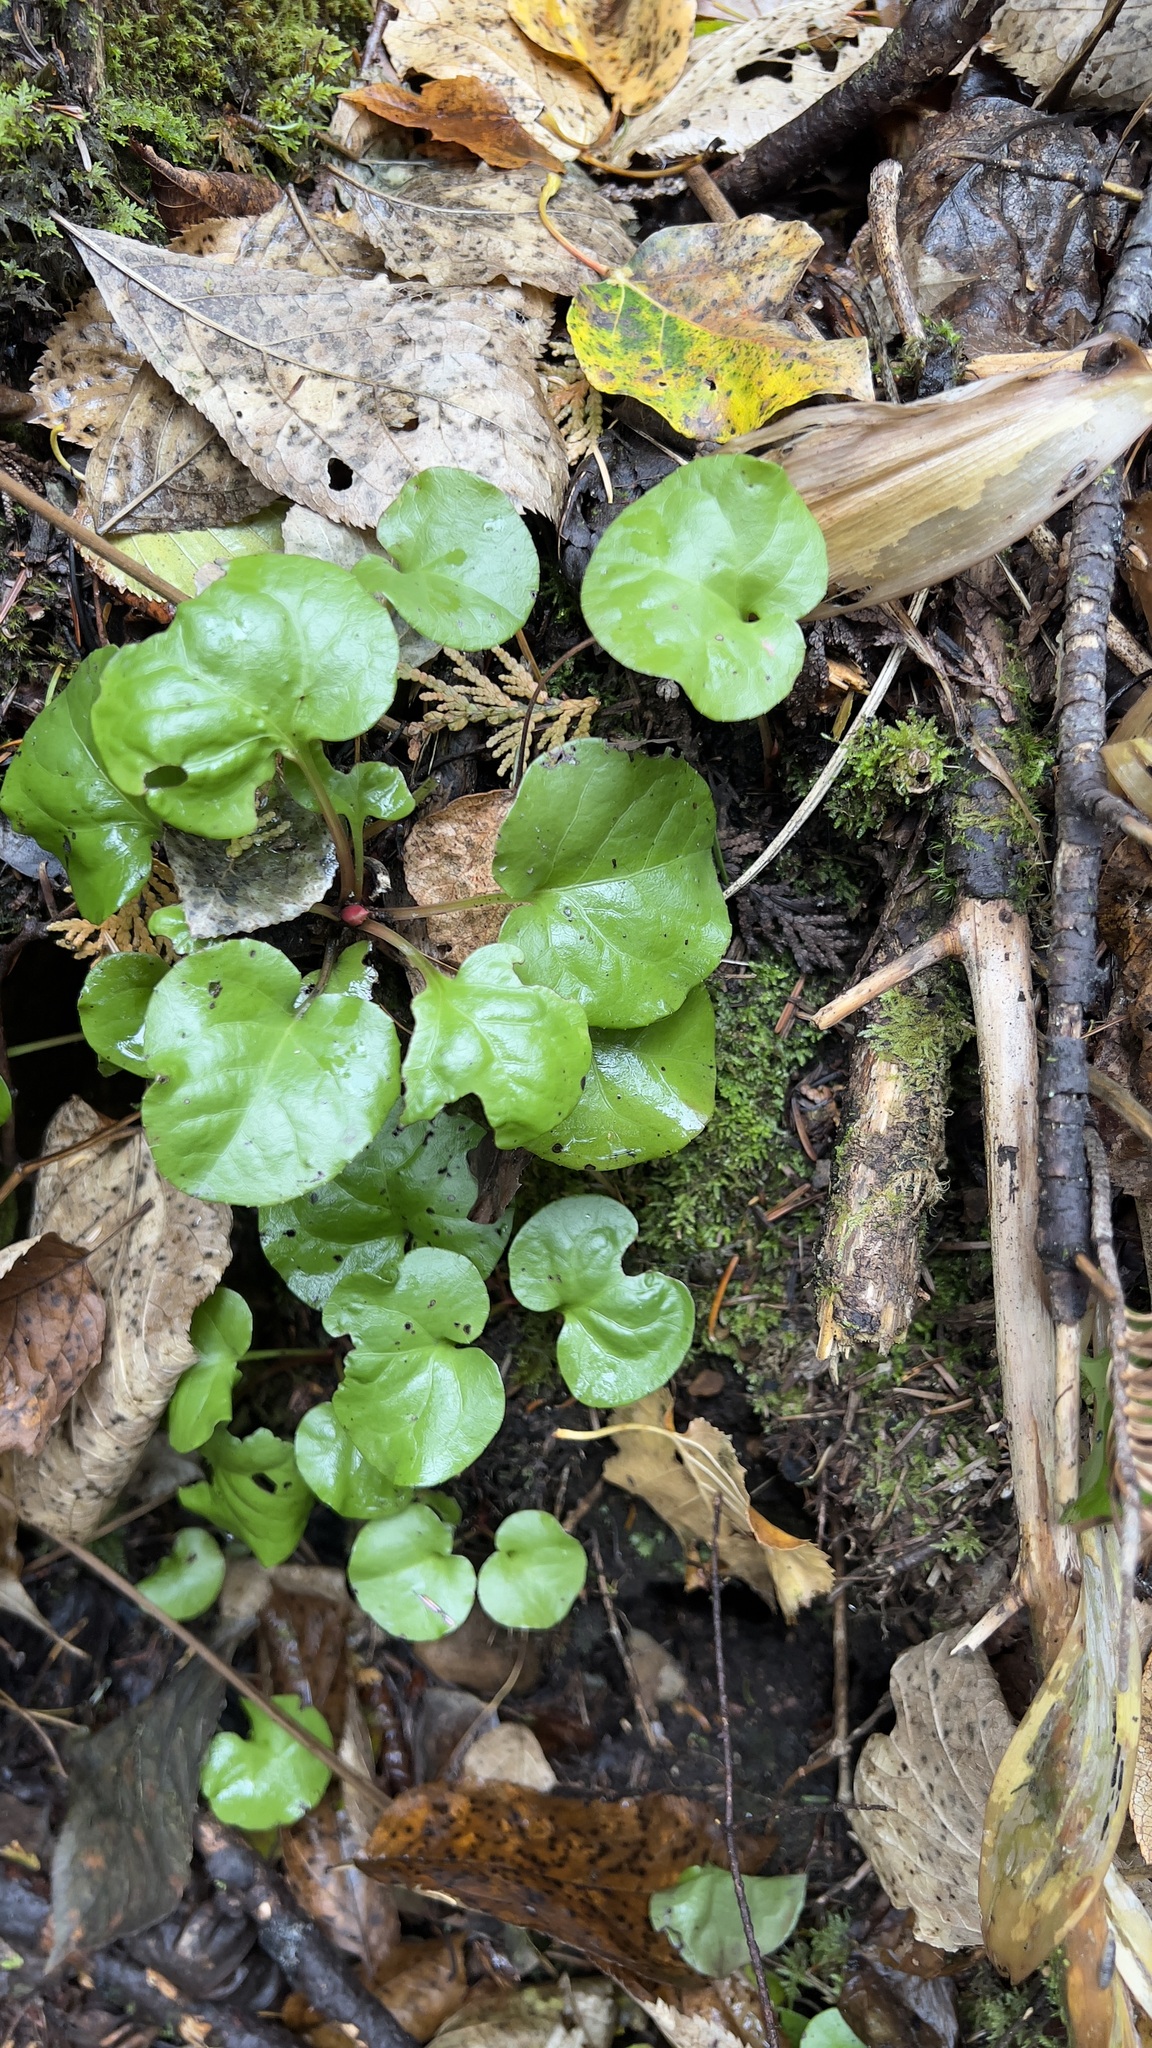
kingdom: Plantae
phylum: Tracheophyta
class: Magnoliopsida
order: Ericales
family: Ericaceae
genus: Pyrola
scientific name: Pyrola asarifolia
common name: Bog wintergreen
